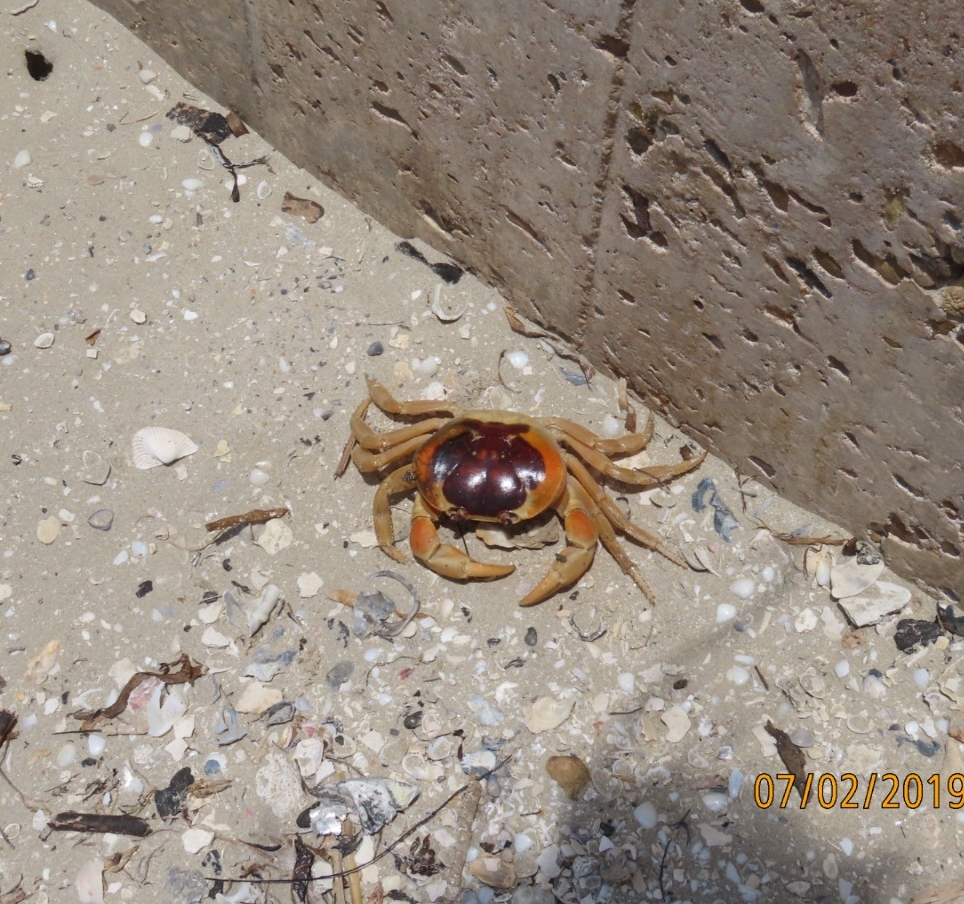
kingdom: Animalia
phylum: Arthropoda
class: Malacostraca
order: Decapoda
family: Gecarcinidae
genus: Gecarcinus
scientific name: Gecarcinus lateralis
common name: Bermuda land crab
